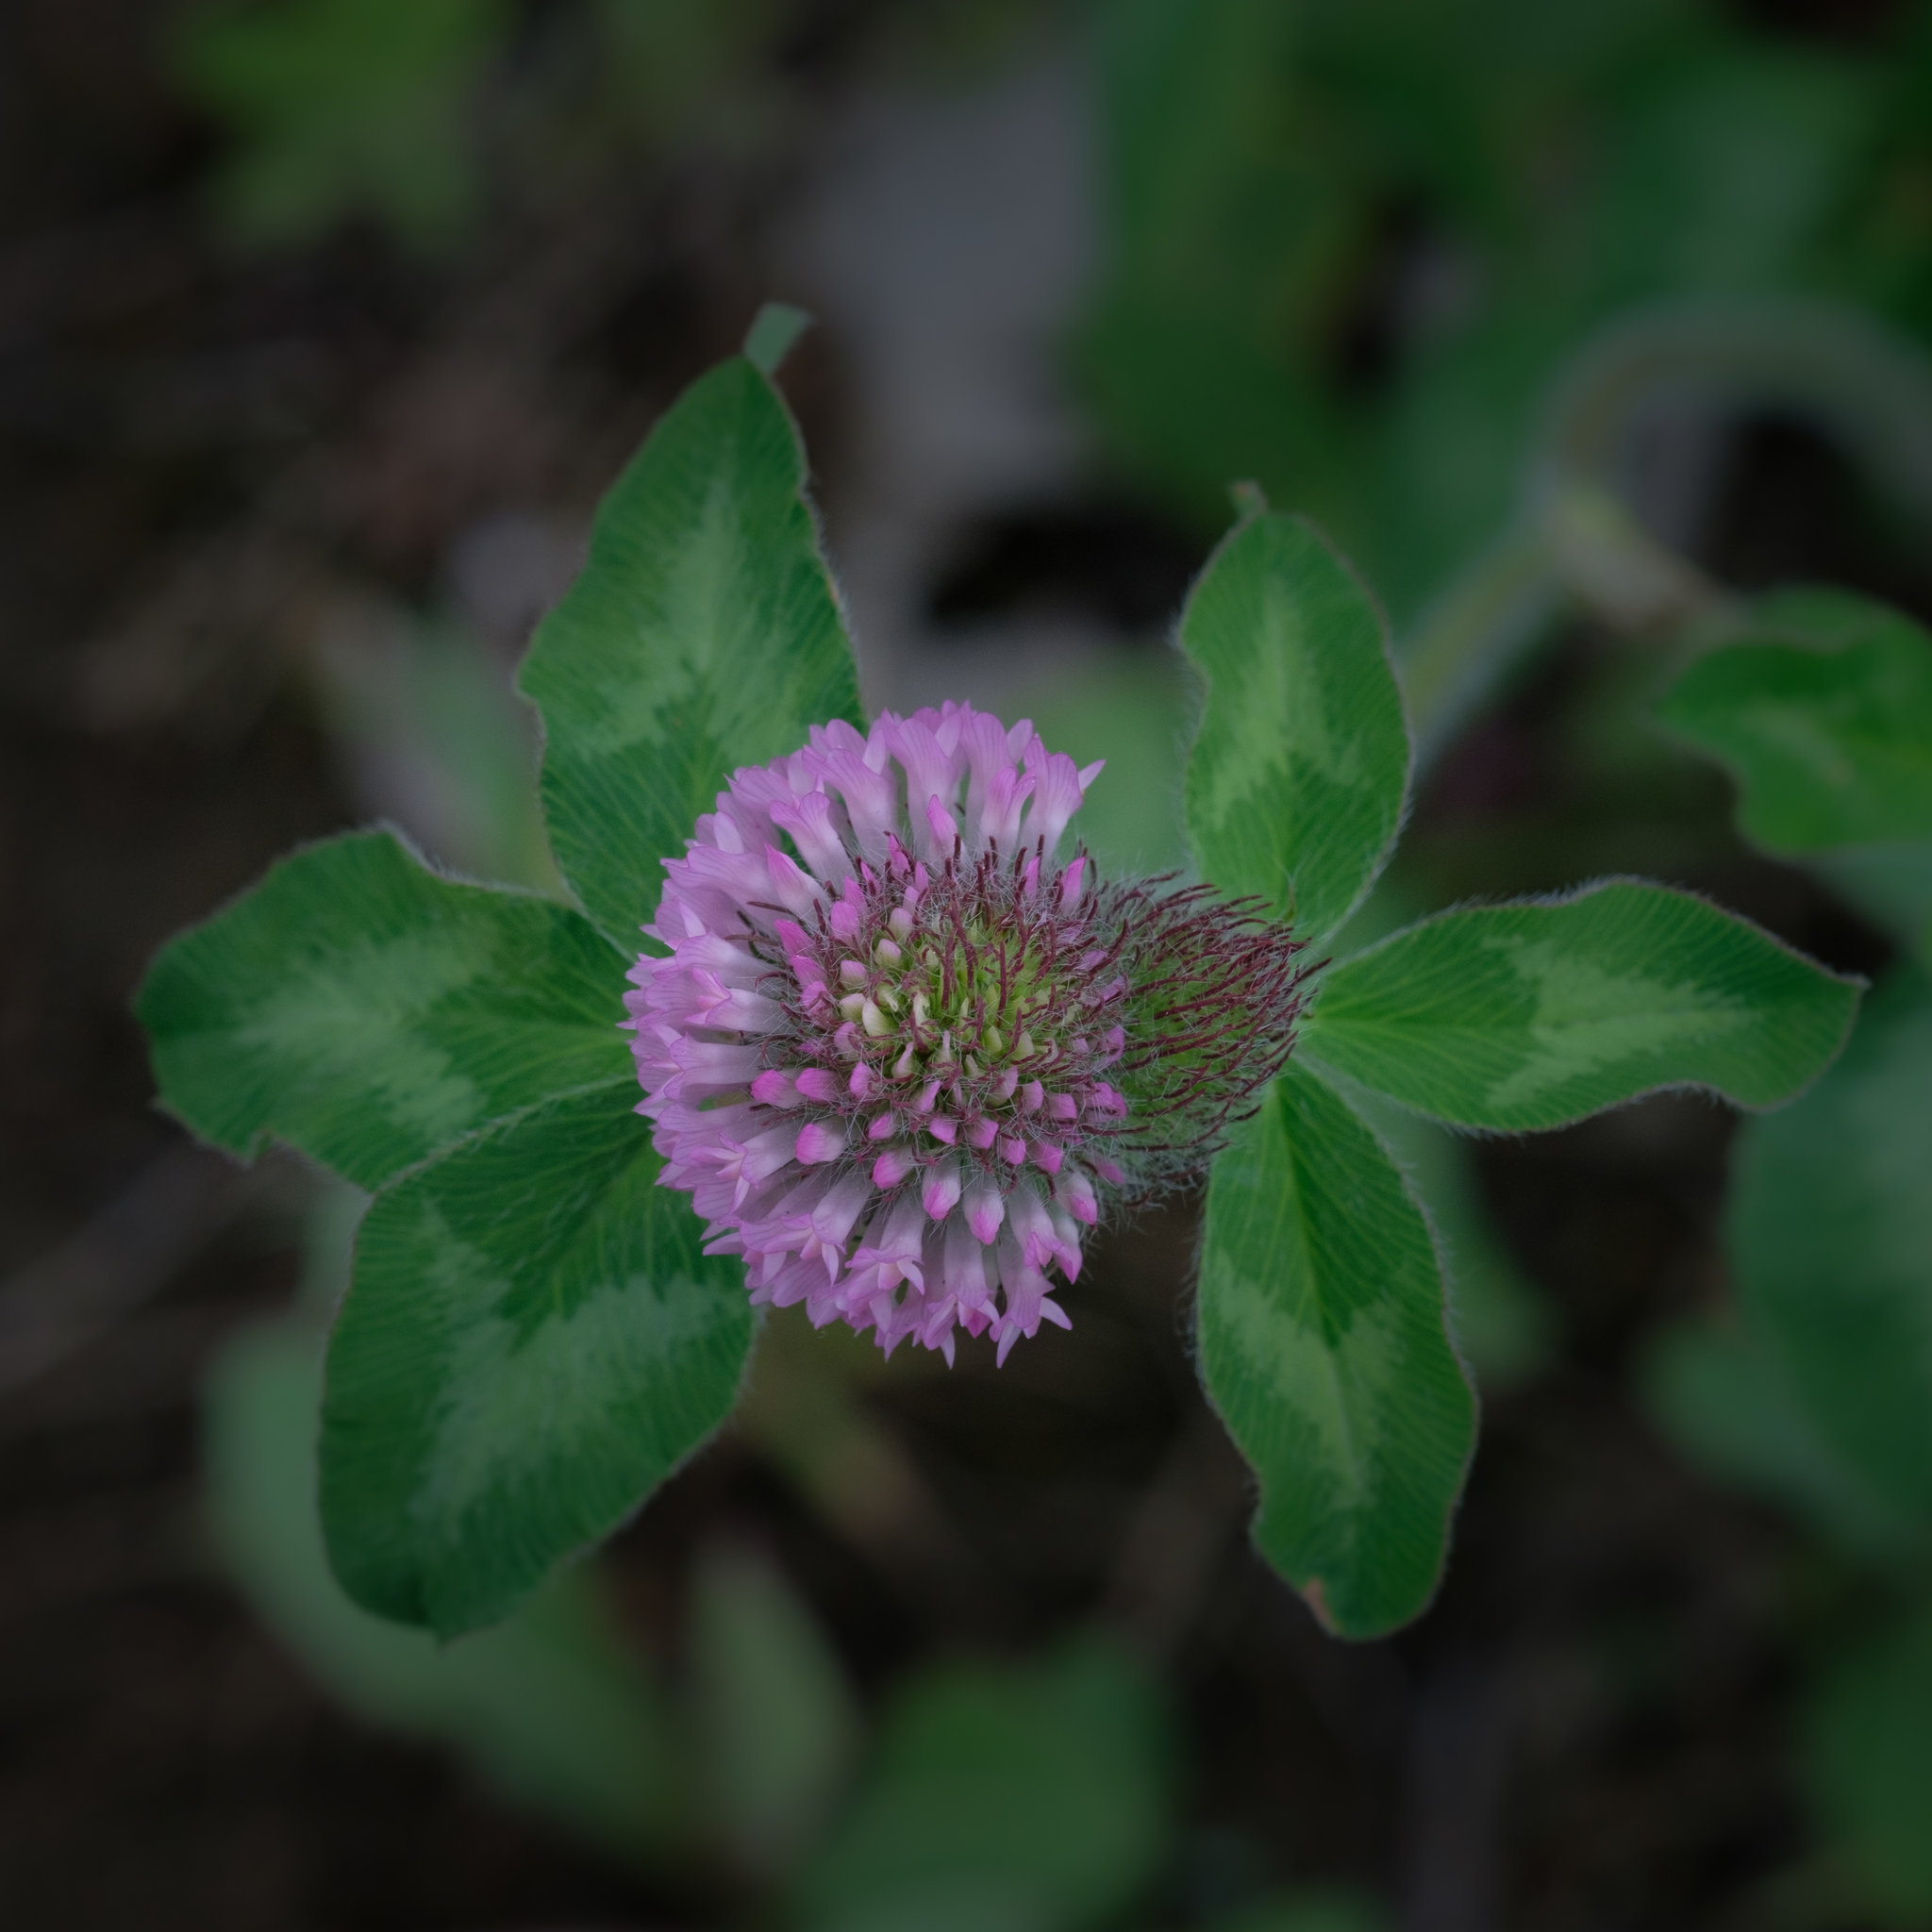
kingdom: Plantae
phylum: Tracheophyta
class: Magnoliopsida
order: Fabales
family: Fabaceae
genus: Trifolium
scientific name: Trifolium pratense
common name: Red clover
